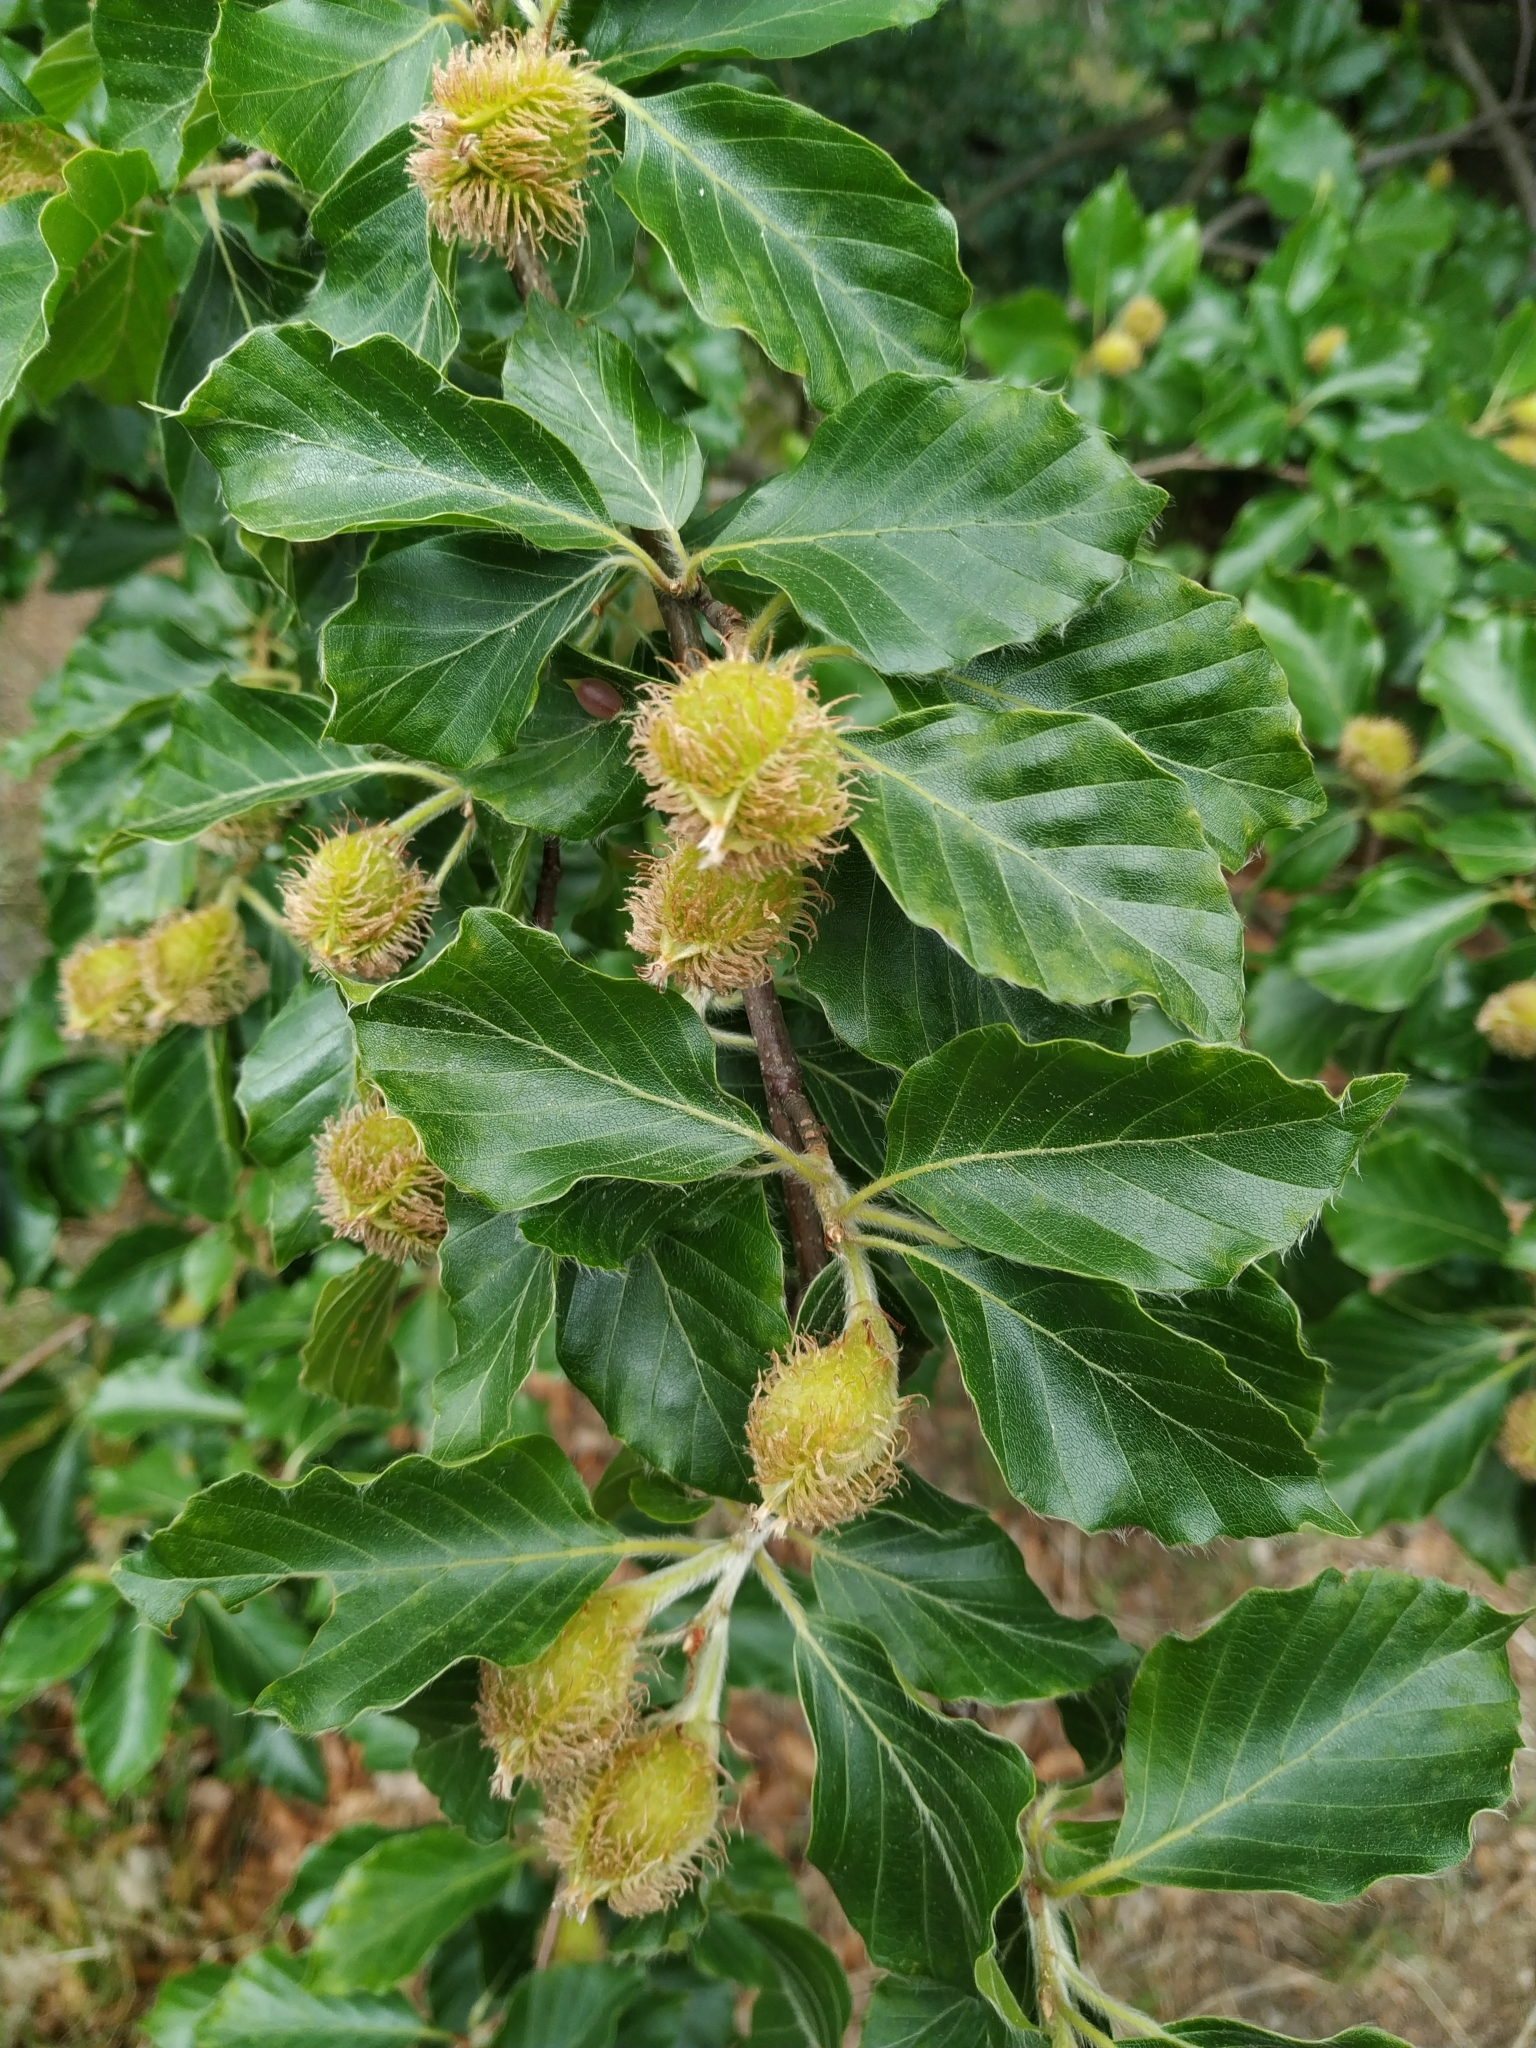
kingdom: Plantae
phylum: Tracheophyta
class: Magnoliopsida
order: Fagales
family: Fagaceae
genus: Fagus
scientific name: Fagus sylvatica
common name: Beech
